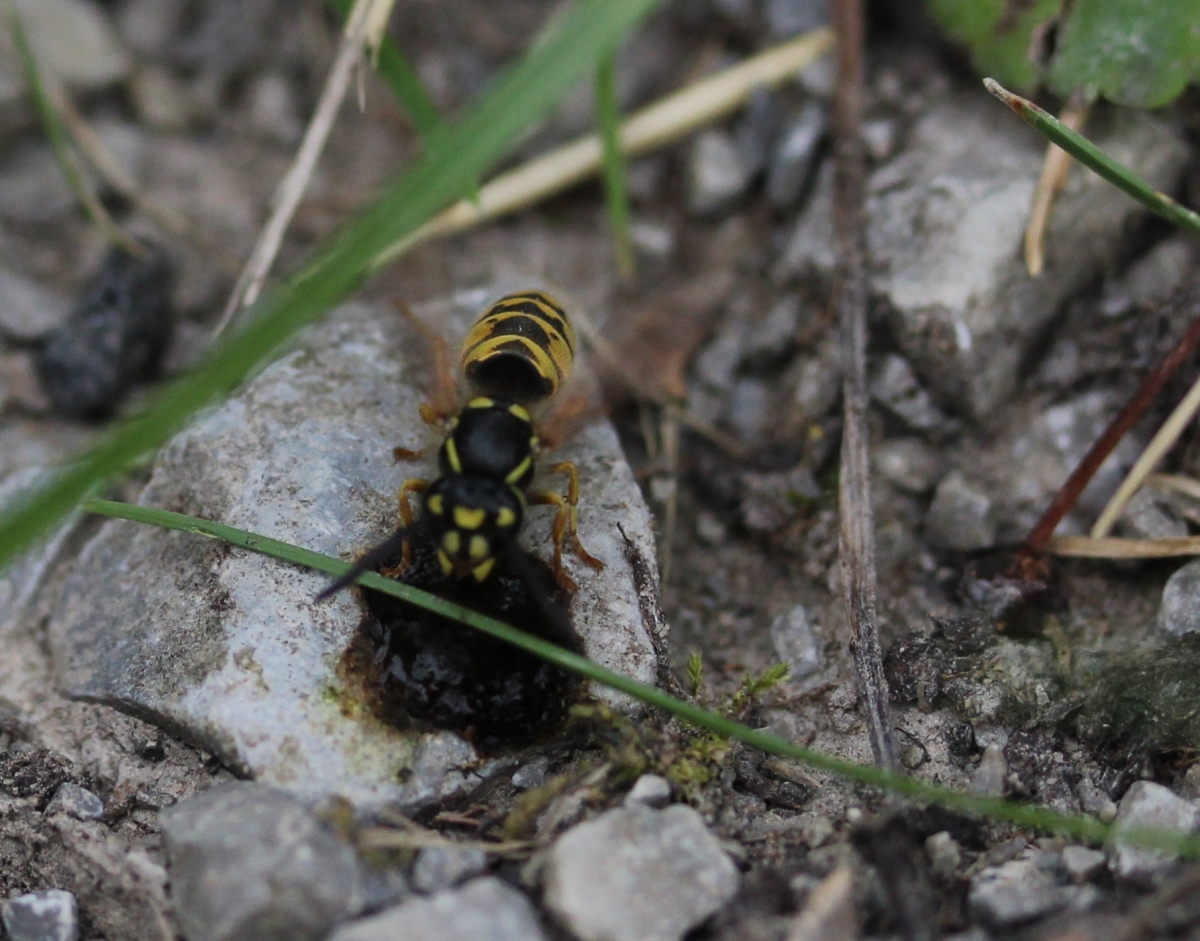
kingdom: Animalia
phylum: Arthropoda
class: Insecta
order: Hymenoptera
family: Vespidae
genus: Vespula
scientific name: Vespula vulgaris
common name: Common wasp
